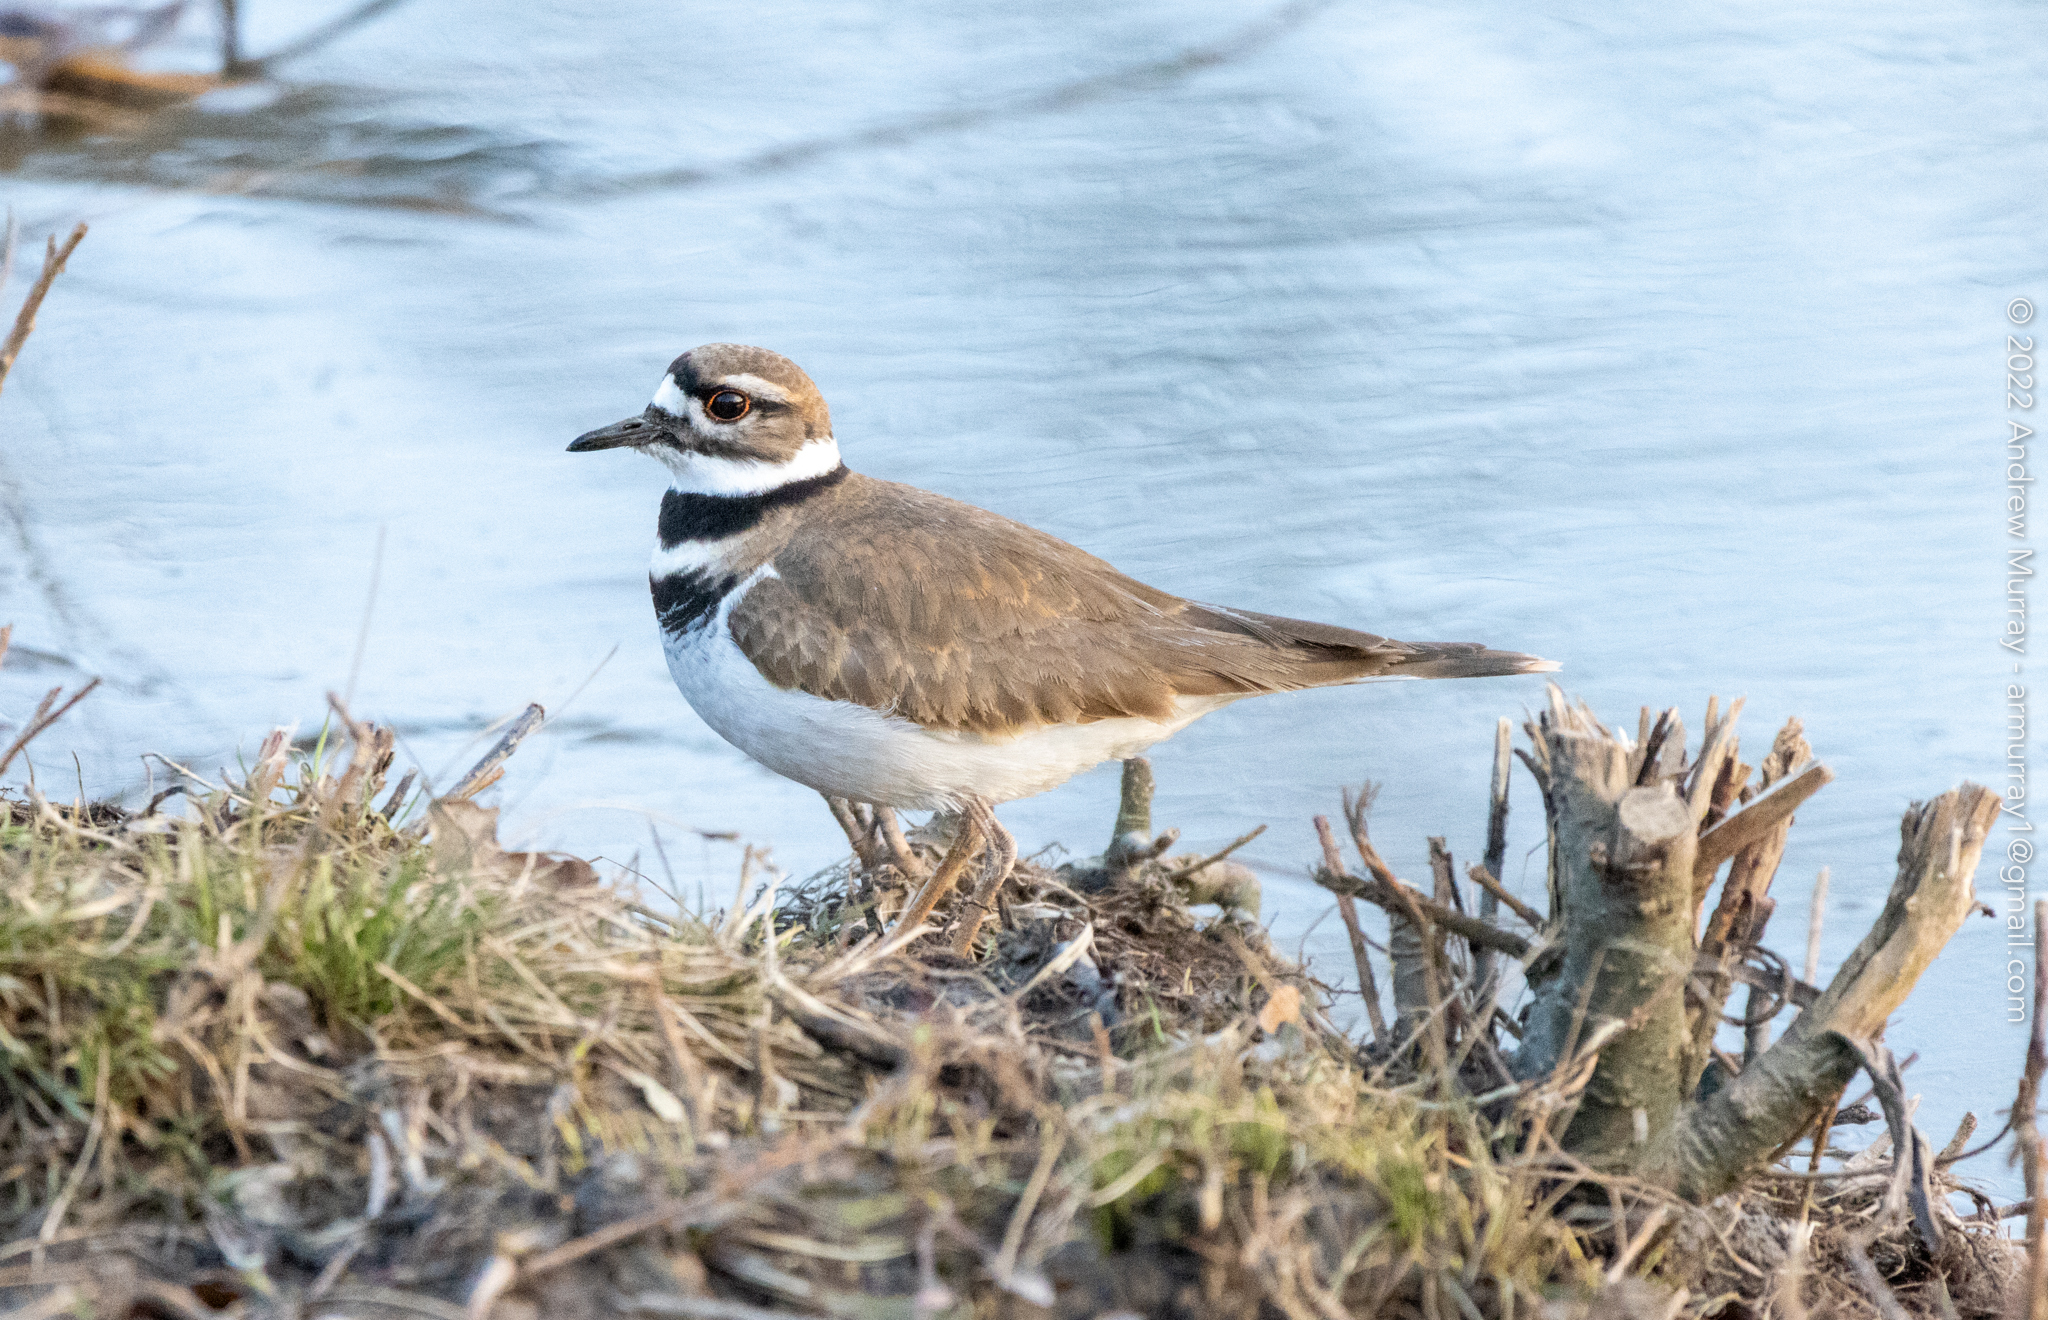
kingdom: Animalia
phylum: Chordata
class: Aves
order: Charadriiformes
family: Charadriidae
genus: Charadrius
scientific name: Charadrius vociferus
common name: Killdeer
